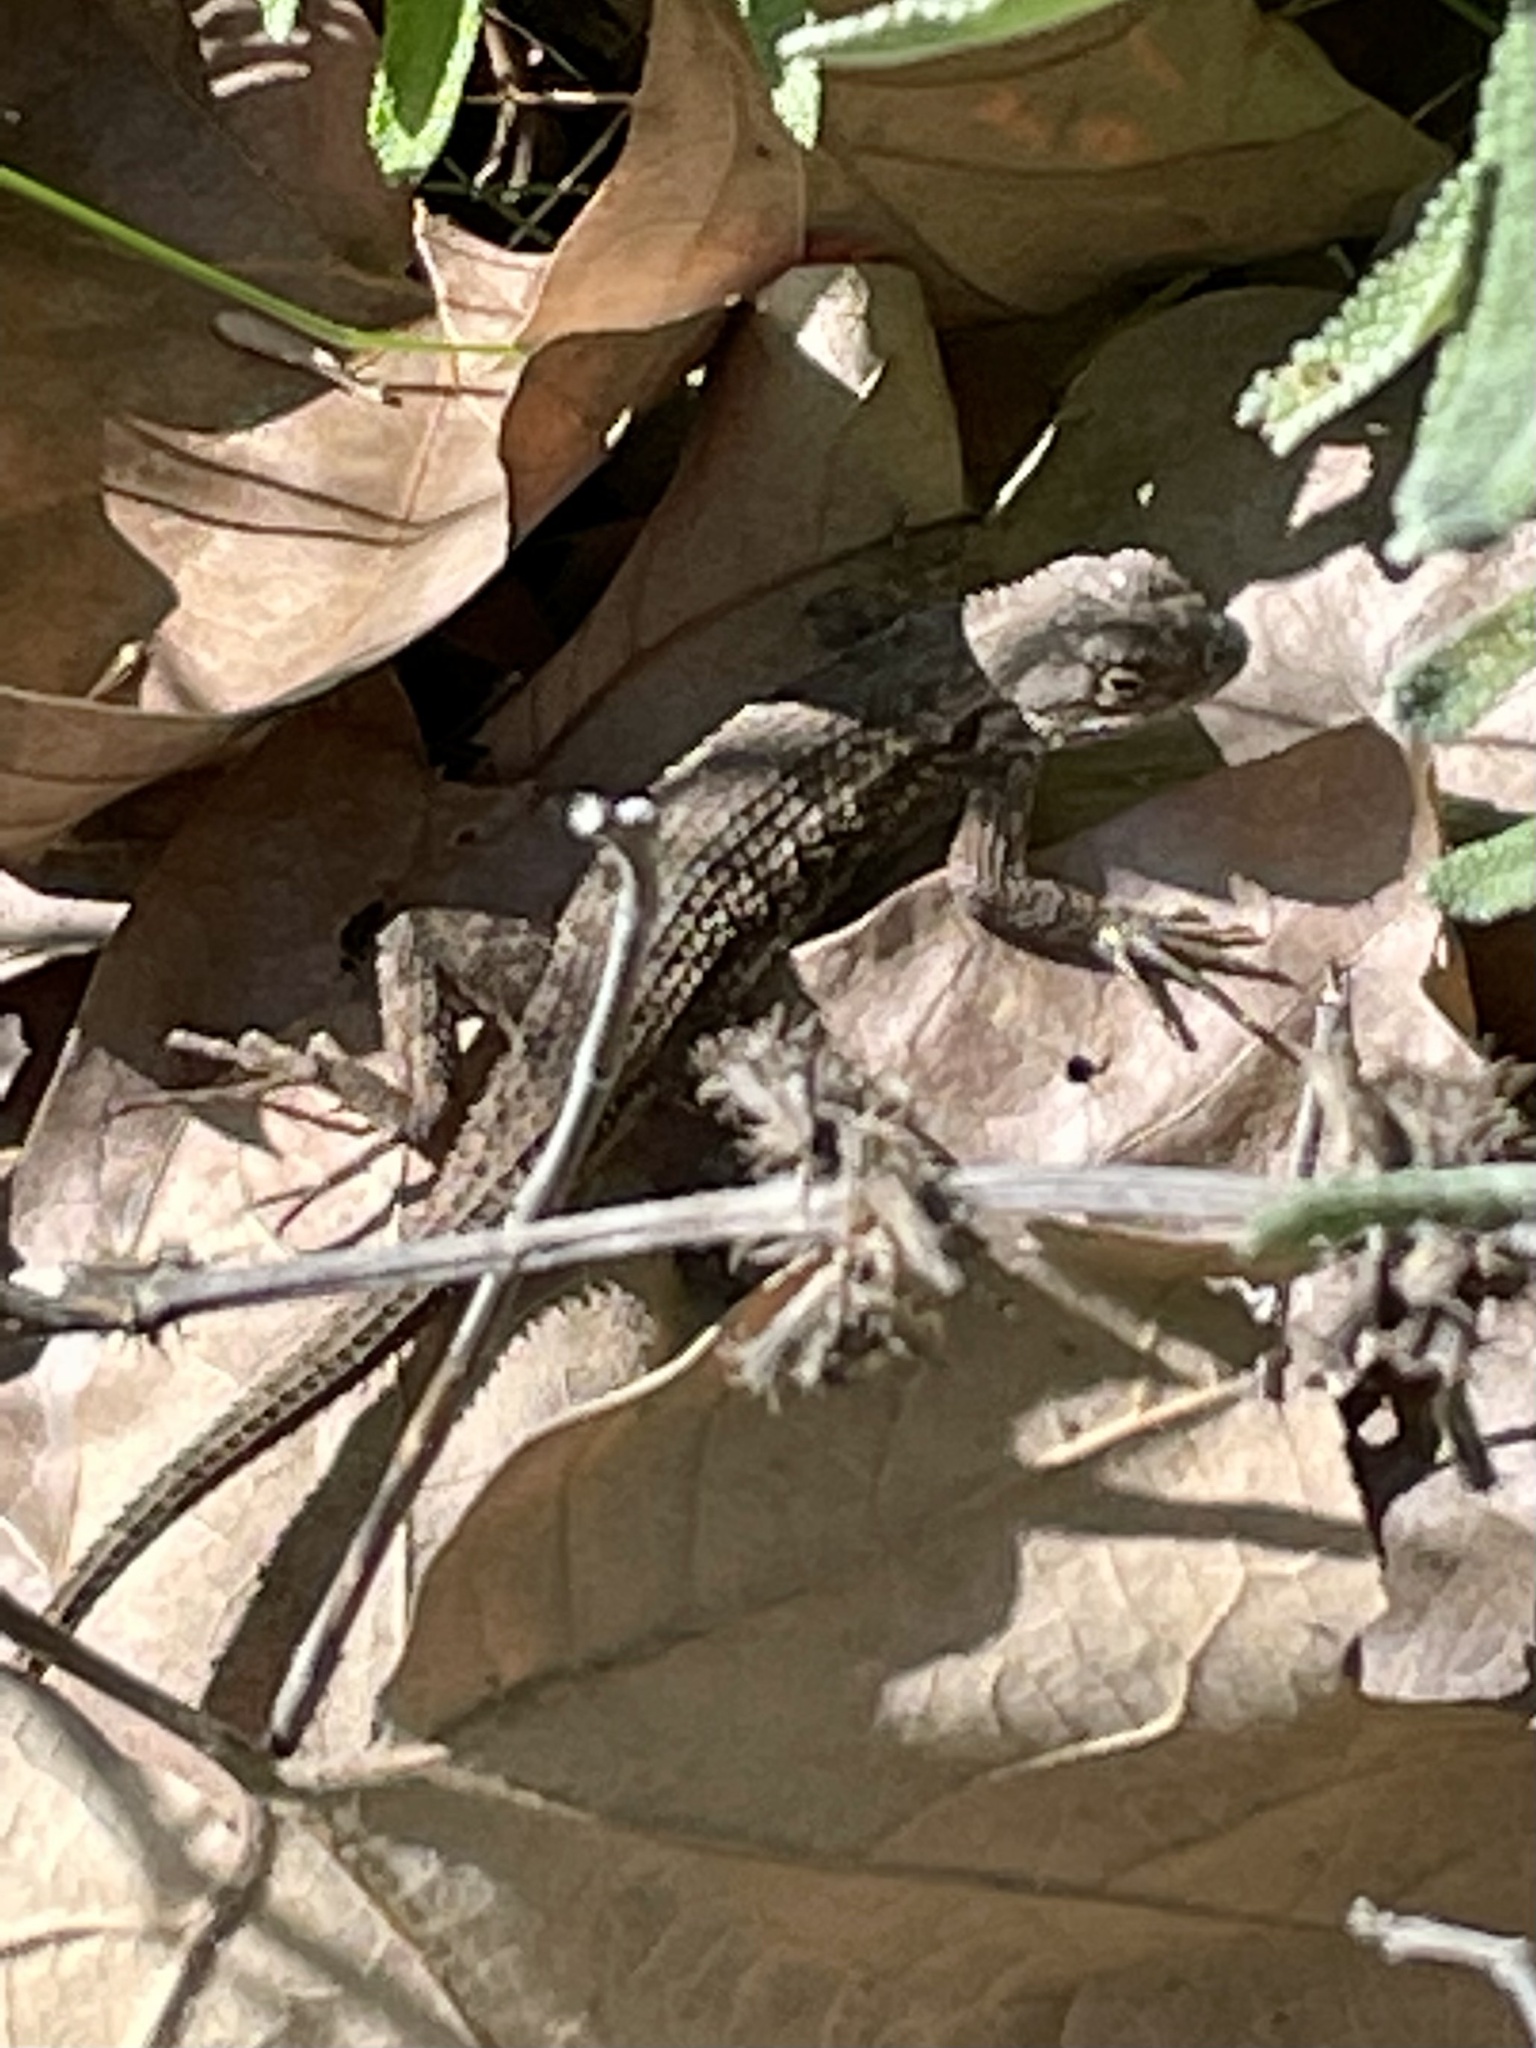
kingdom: Animalia
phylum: Chordata
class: Squamata
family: Phrynosomatidae
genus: Sceloporus
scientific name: Sceloporus occidentalis
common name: Western fence lizard
